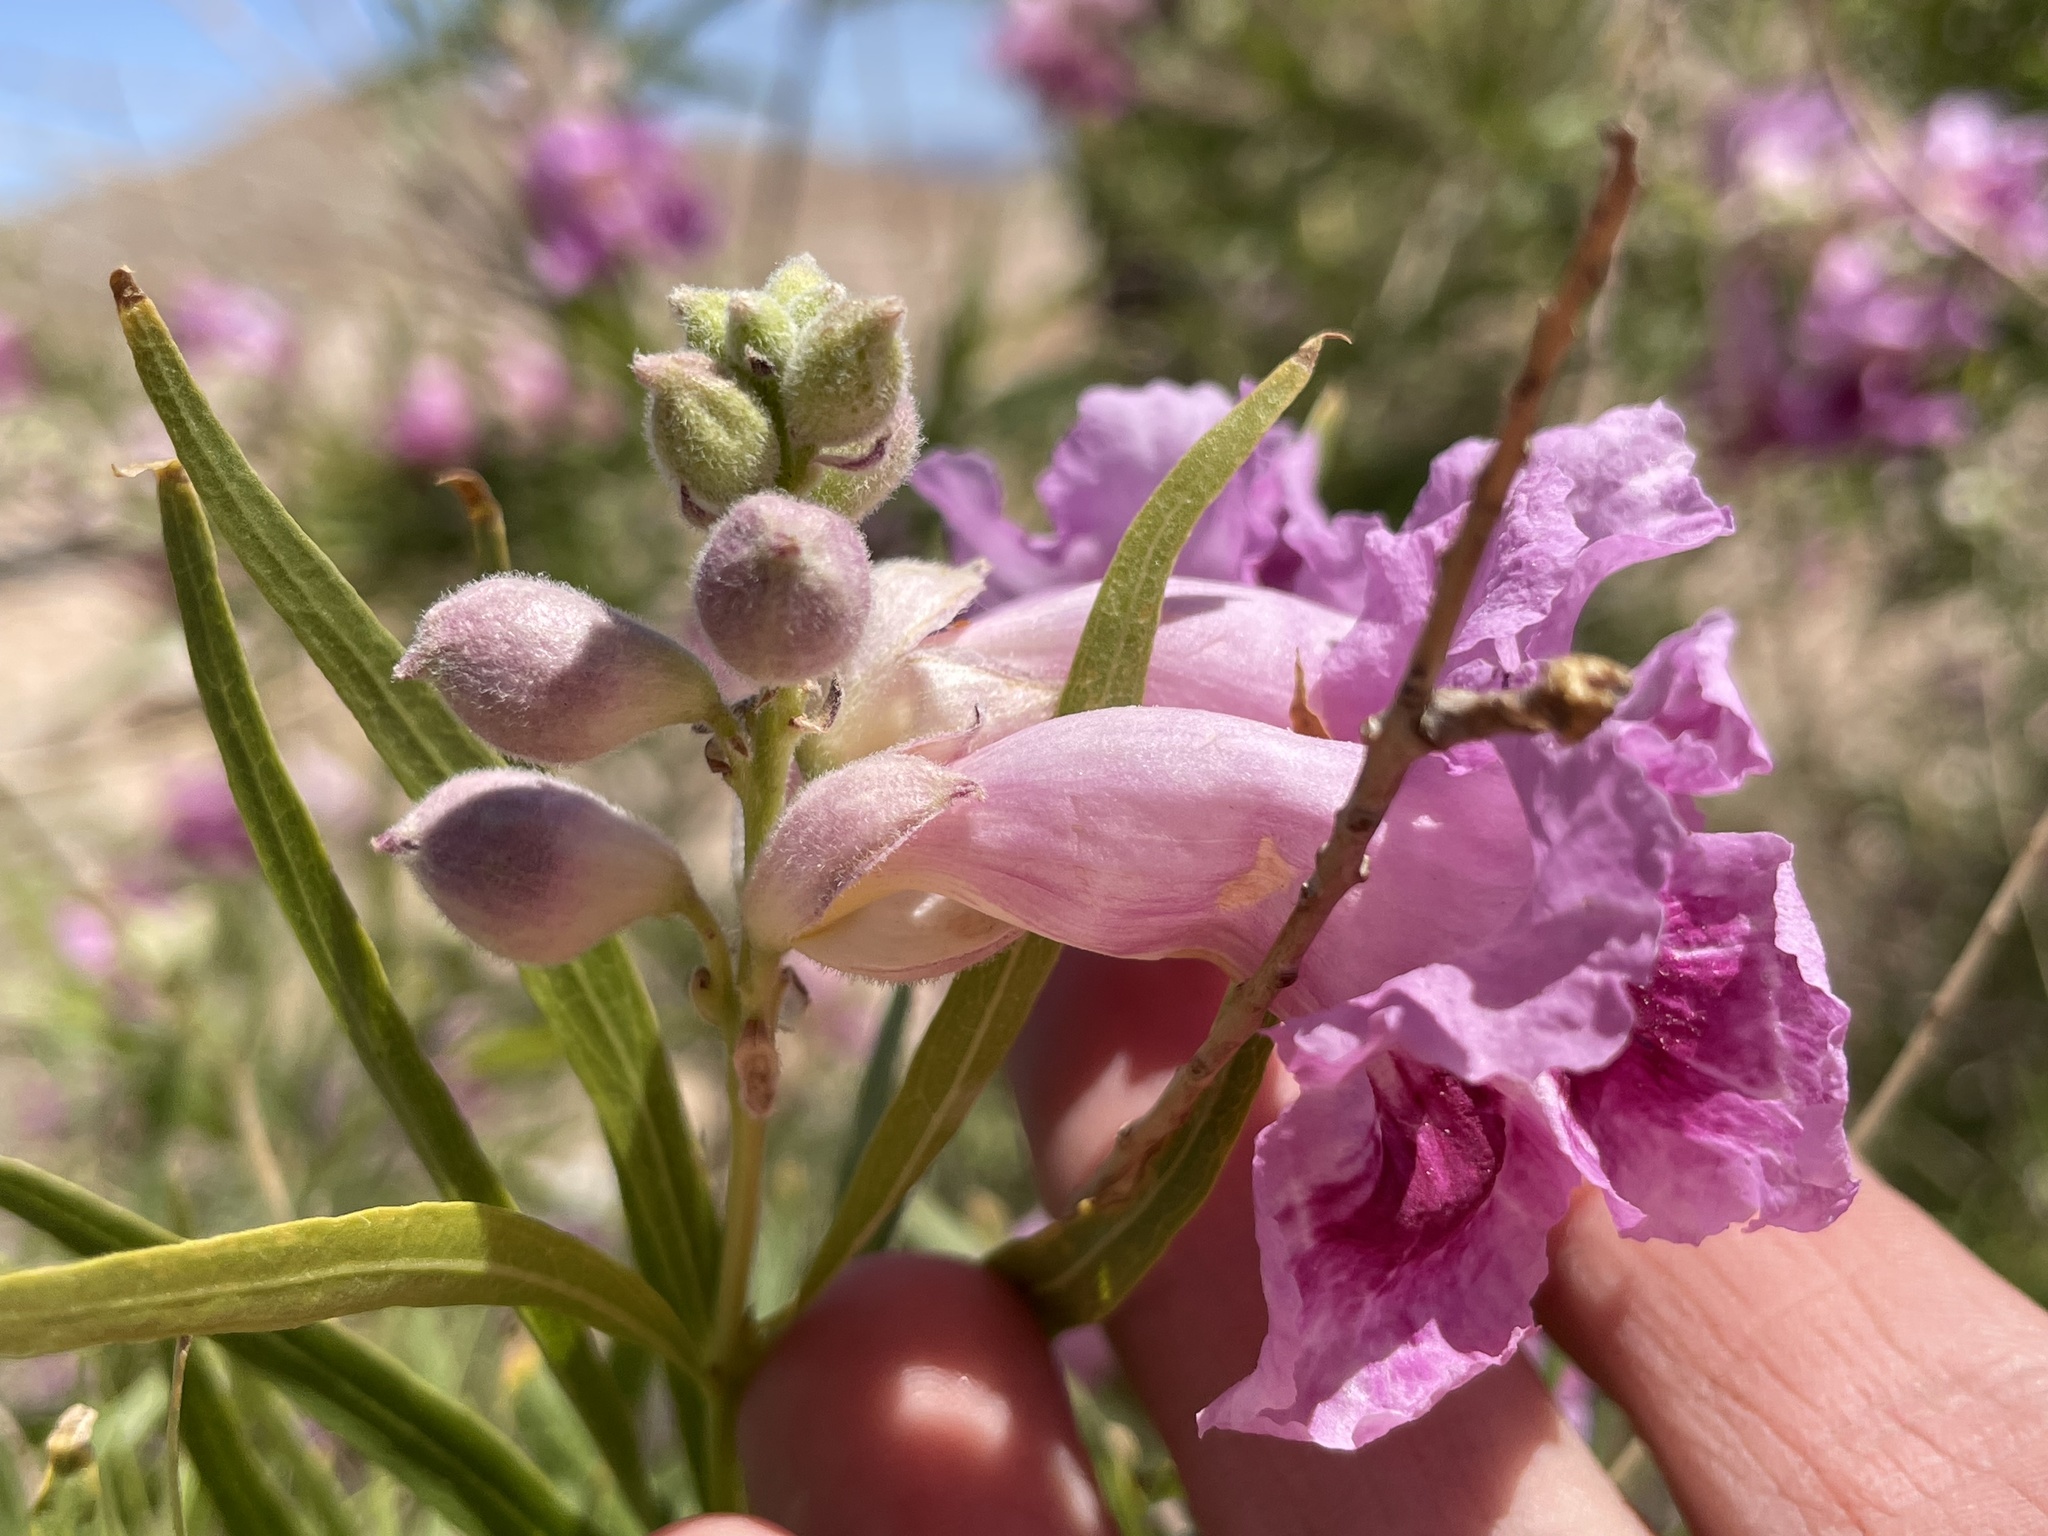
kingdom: Plantae
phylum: Tracheophyta
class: Magnoliopsida
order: Lamiales
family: Bignoniaceae
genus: Chilopsis
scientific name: Chilopsis linearis
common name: Desert-willow
